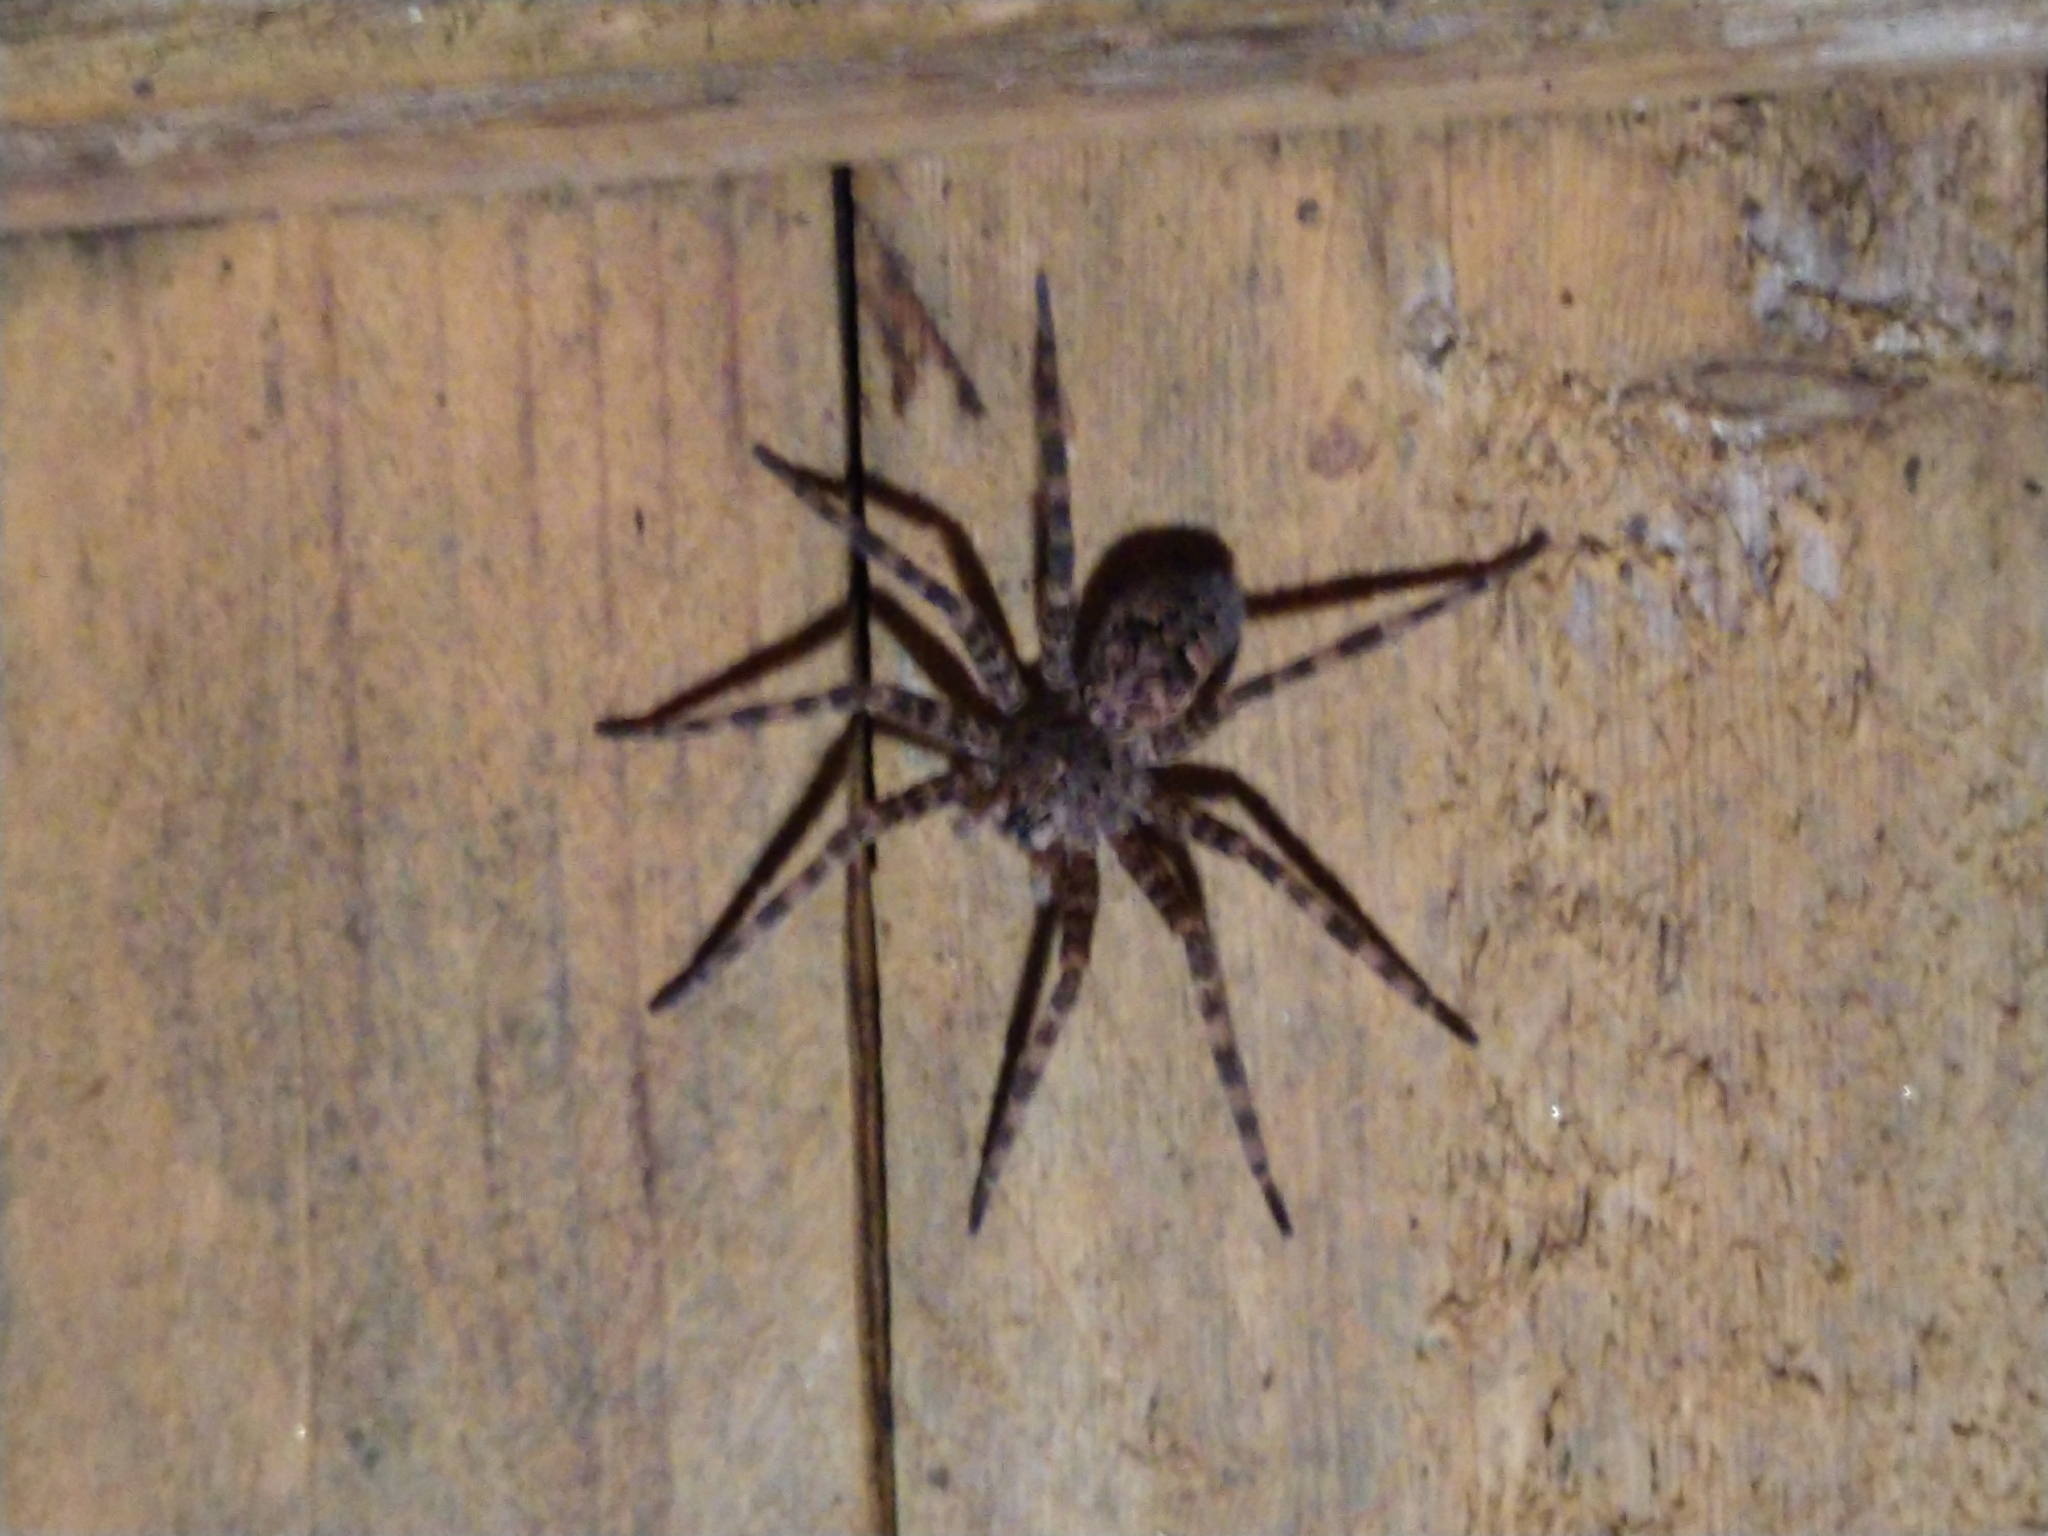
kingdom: Animalia
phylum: Arthropoda
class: Arachnida
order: Araneae
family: Pisauridae
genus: Dolomedes
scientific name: Dolomedes tenebrosus
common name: Dark fishing spider
